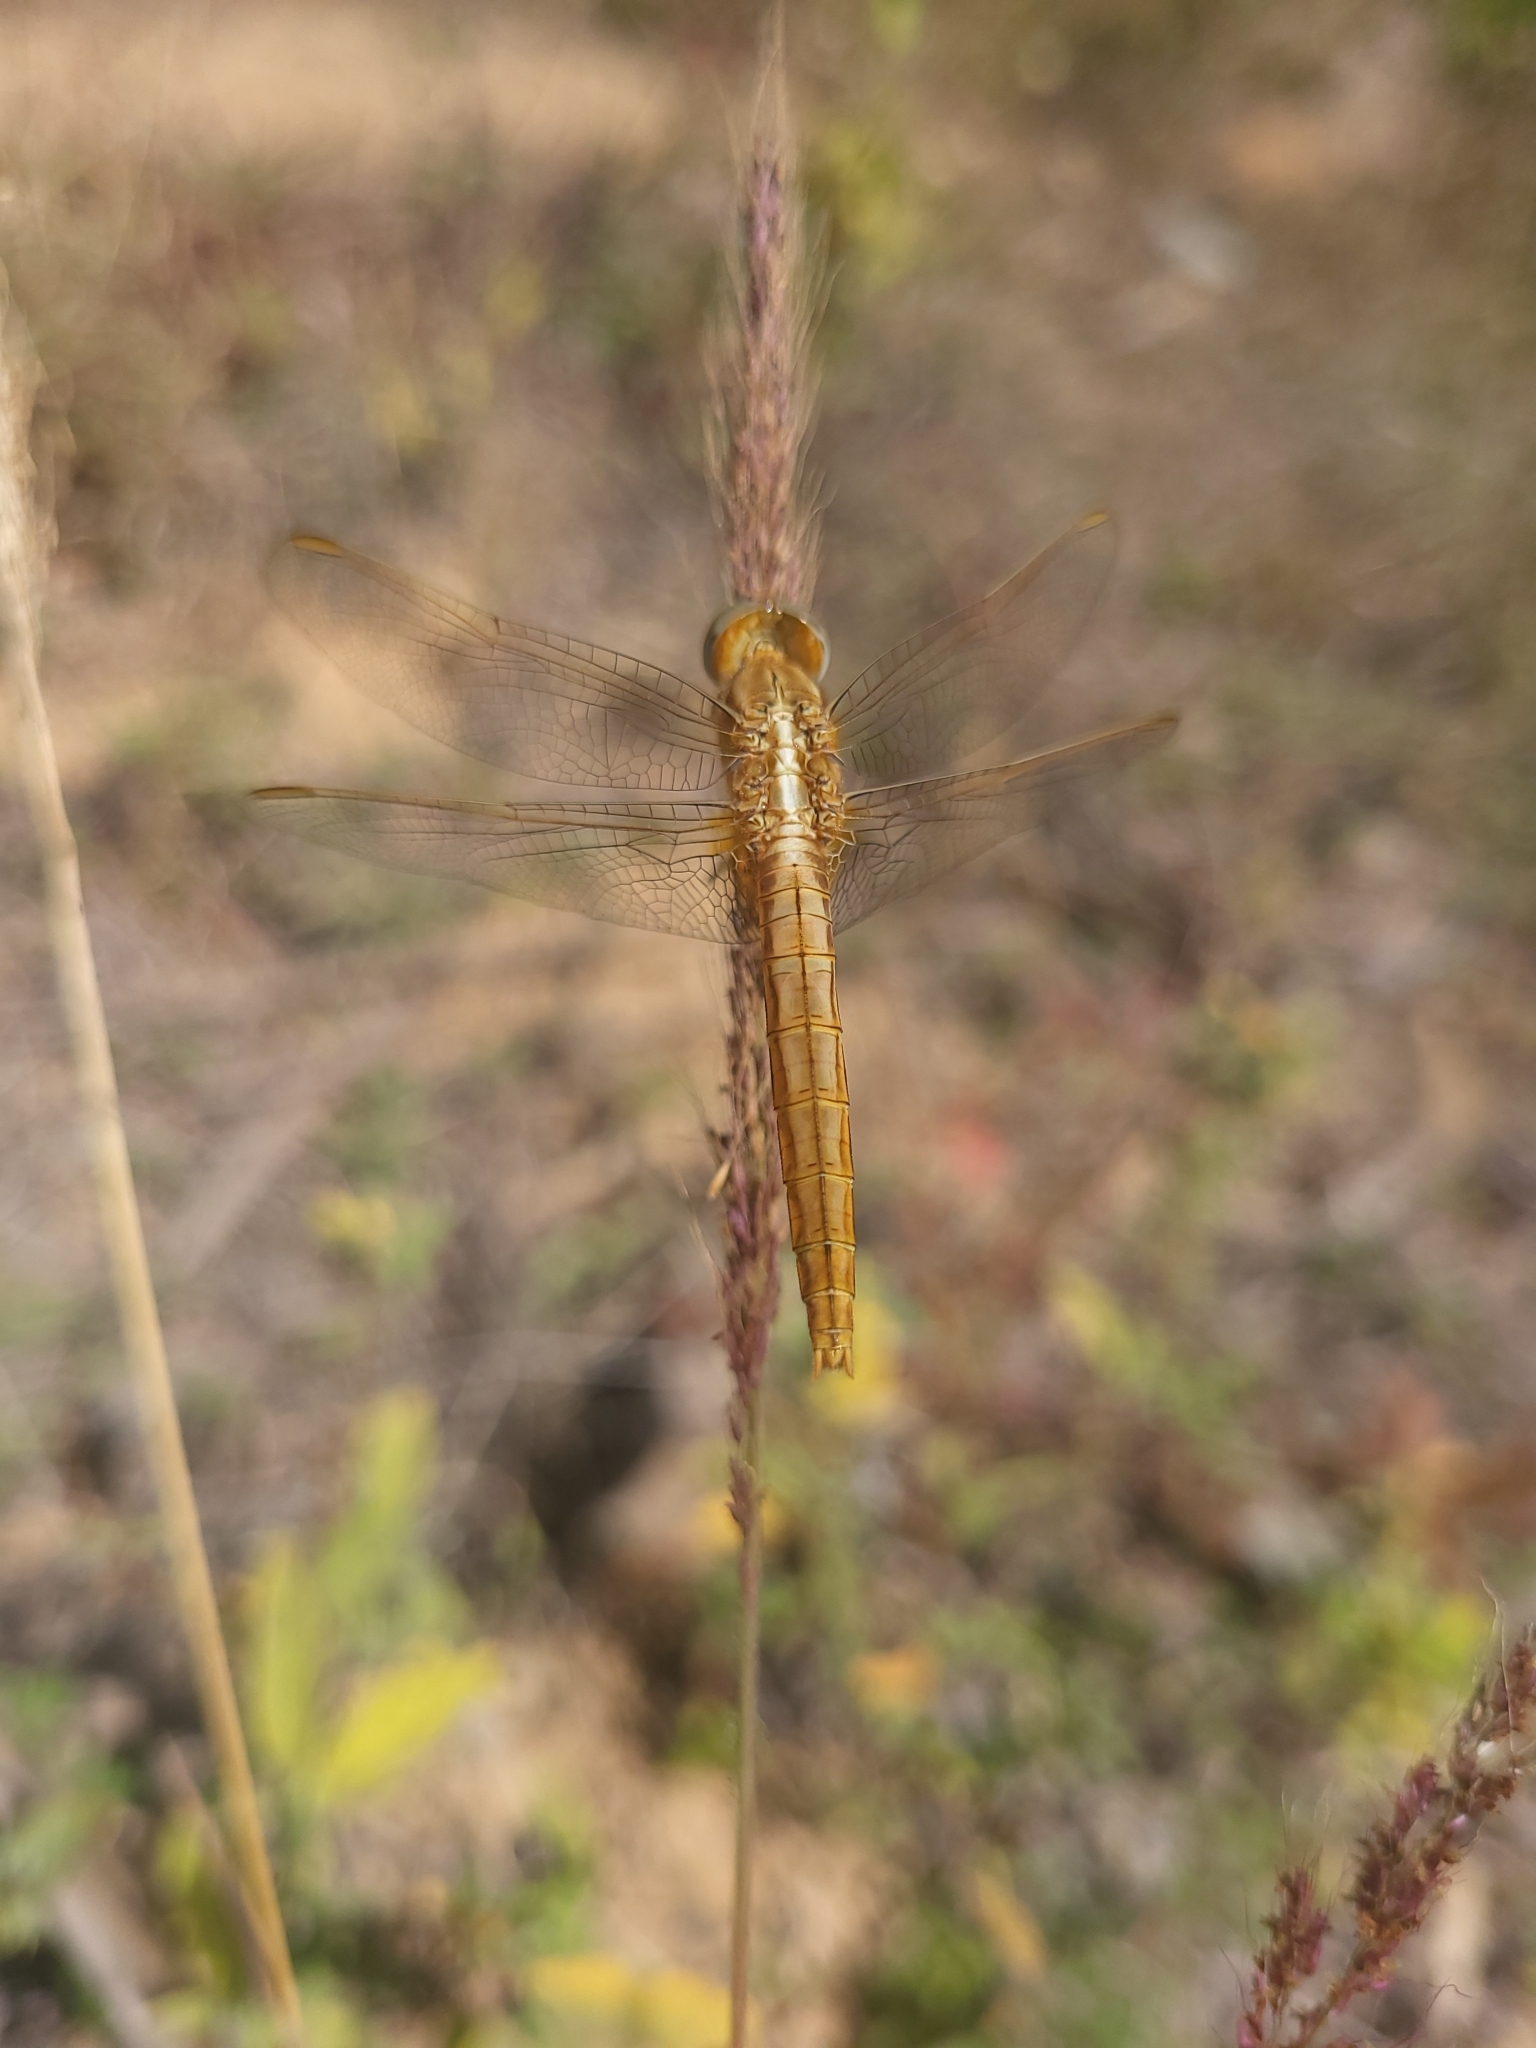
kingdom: Animalia
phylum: Arthropoda
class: Insecta
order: Odonata
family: Libellulidae
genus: Crocothemis
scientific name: Crocothemis erythraea
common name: Scarlet dragonfly
